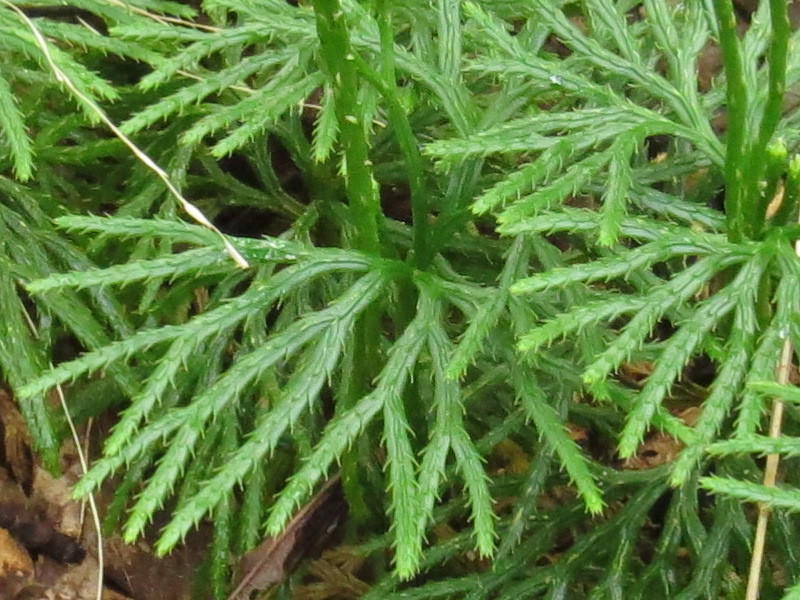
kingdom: Plantae
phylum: Tracheophyta
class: Lycopodiopsida
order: Lycopodiales
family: Lycopodiaceae
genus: Diphasiastrum
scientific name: Diphasiastrum digitatum
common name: Southern running-pine
